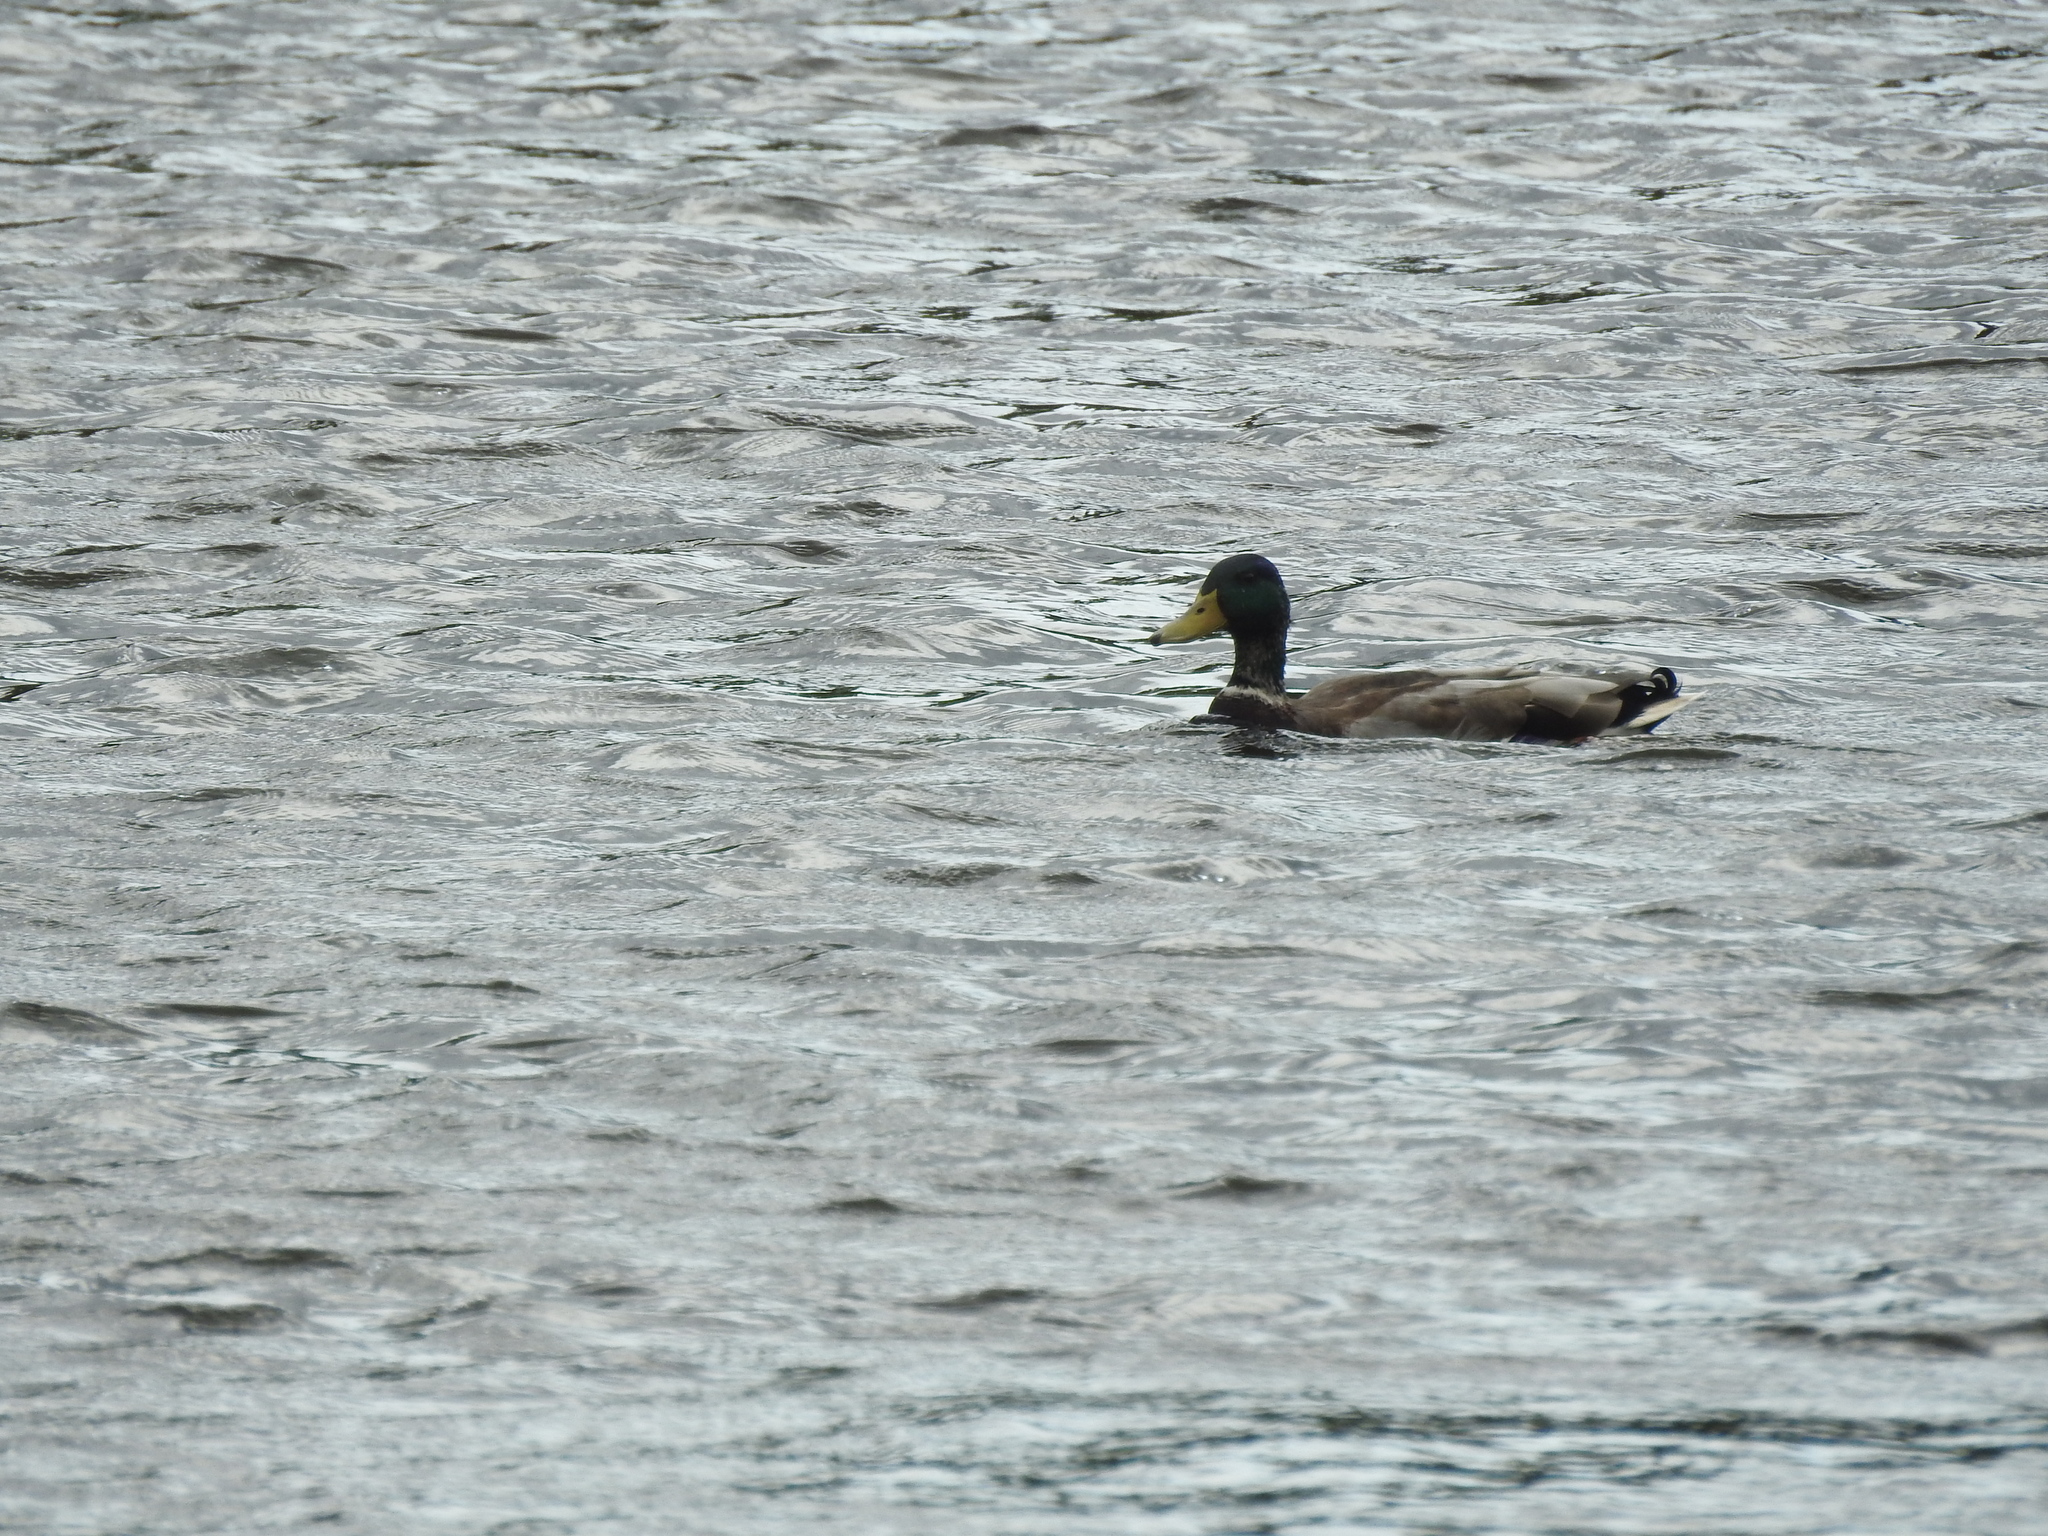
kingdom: Animalia
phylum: Chordata
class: Aves
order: Anseriformes
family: Anatidae
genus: Anas
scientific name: Anas platyrhynchos
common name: Mallard
